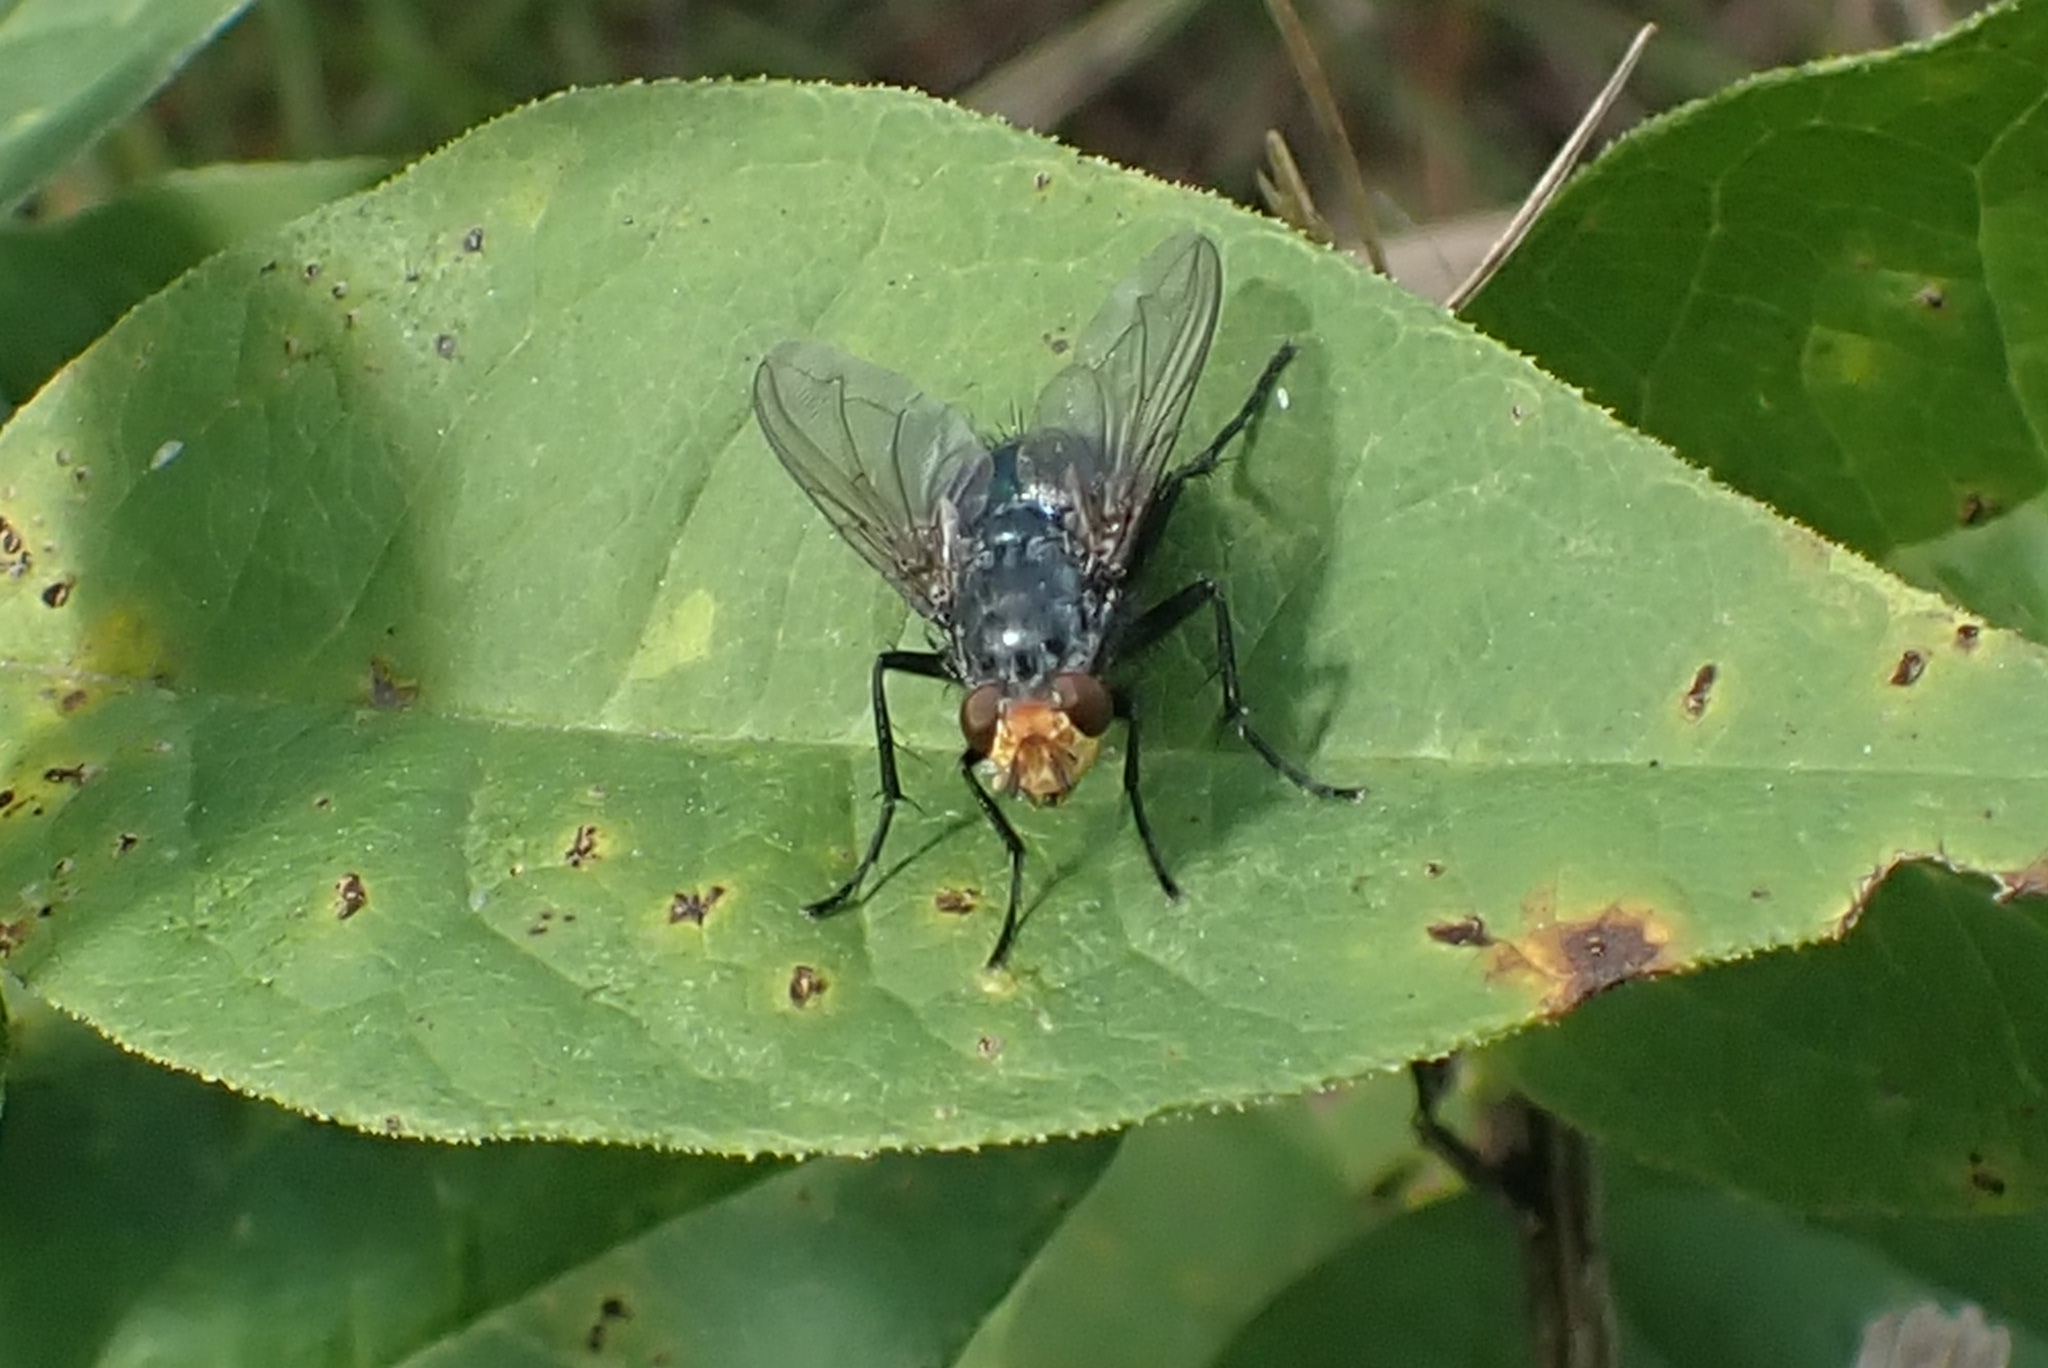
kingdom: Animalia
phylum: Arthropoda
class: Insecta
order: Diptera
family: Calliphoridae
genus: Cynomya
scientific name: Cynomya mortuorum
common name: Bluebottle blow fly
